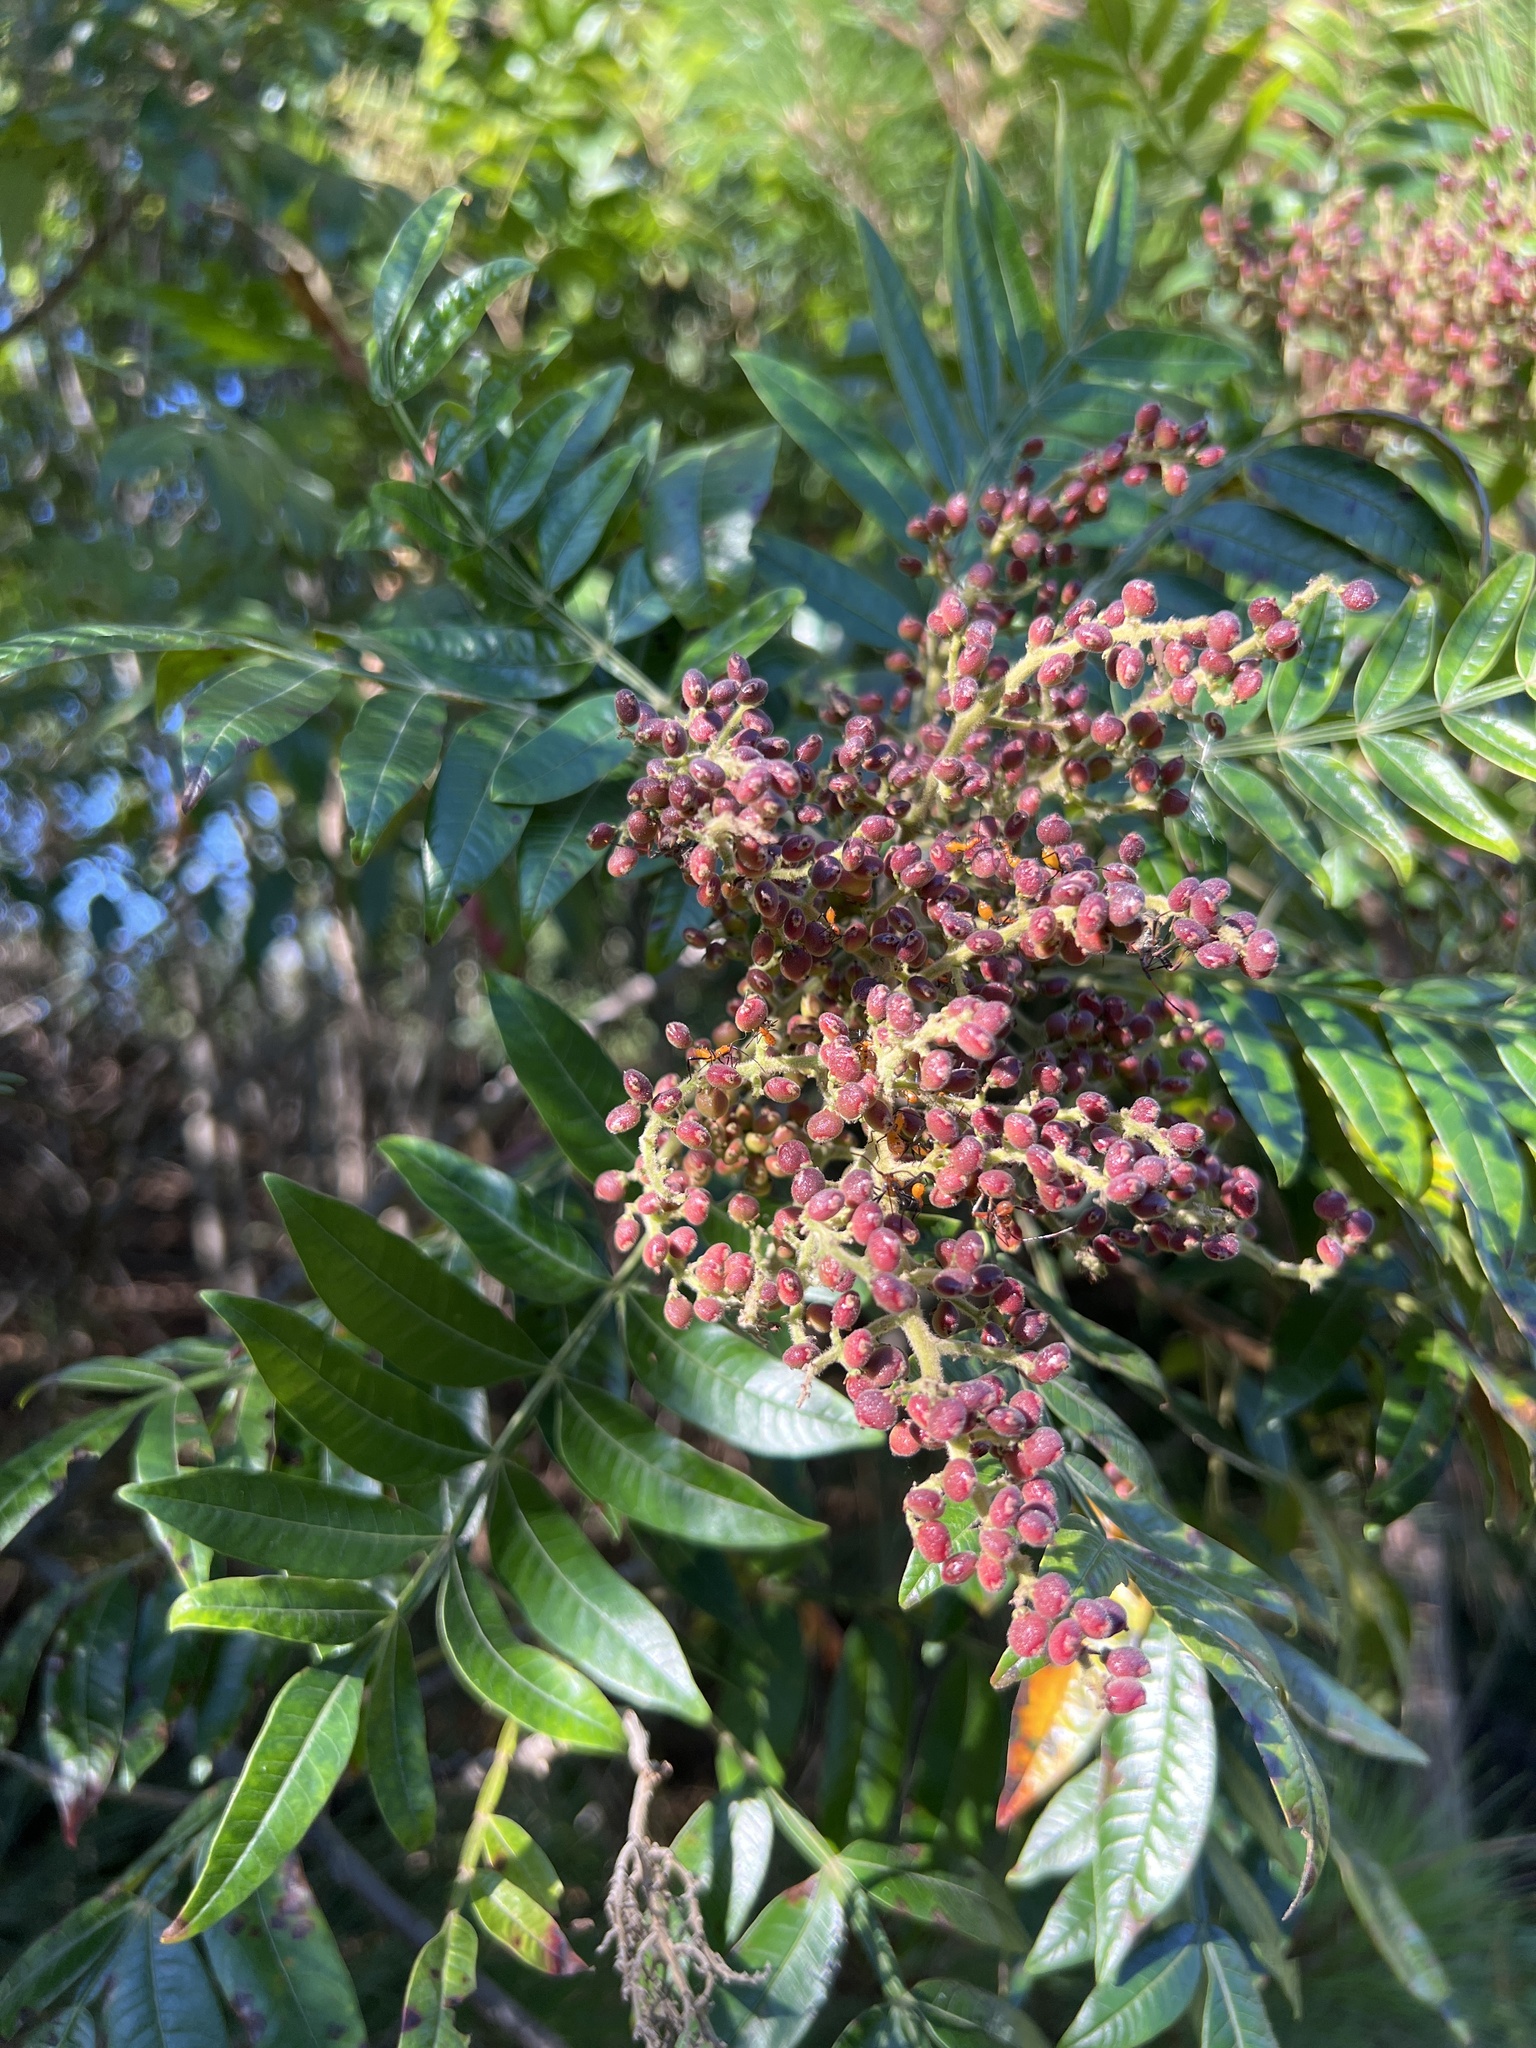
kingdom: Plantae
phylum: Tracheophyta
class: Magnoliopsida
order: Sapindales
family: Anacardiaceae
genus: Rhus
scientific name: Rhus copallina
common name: Shining sumac
